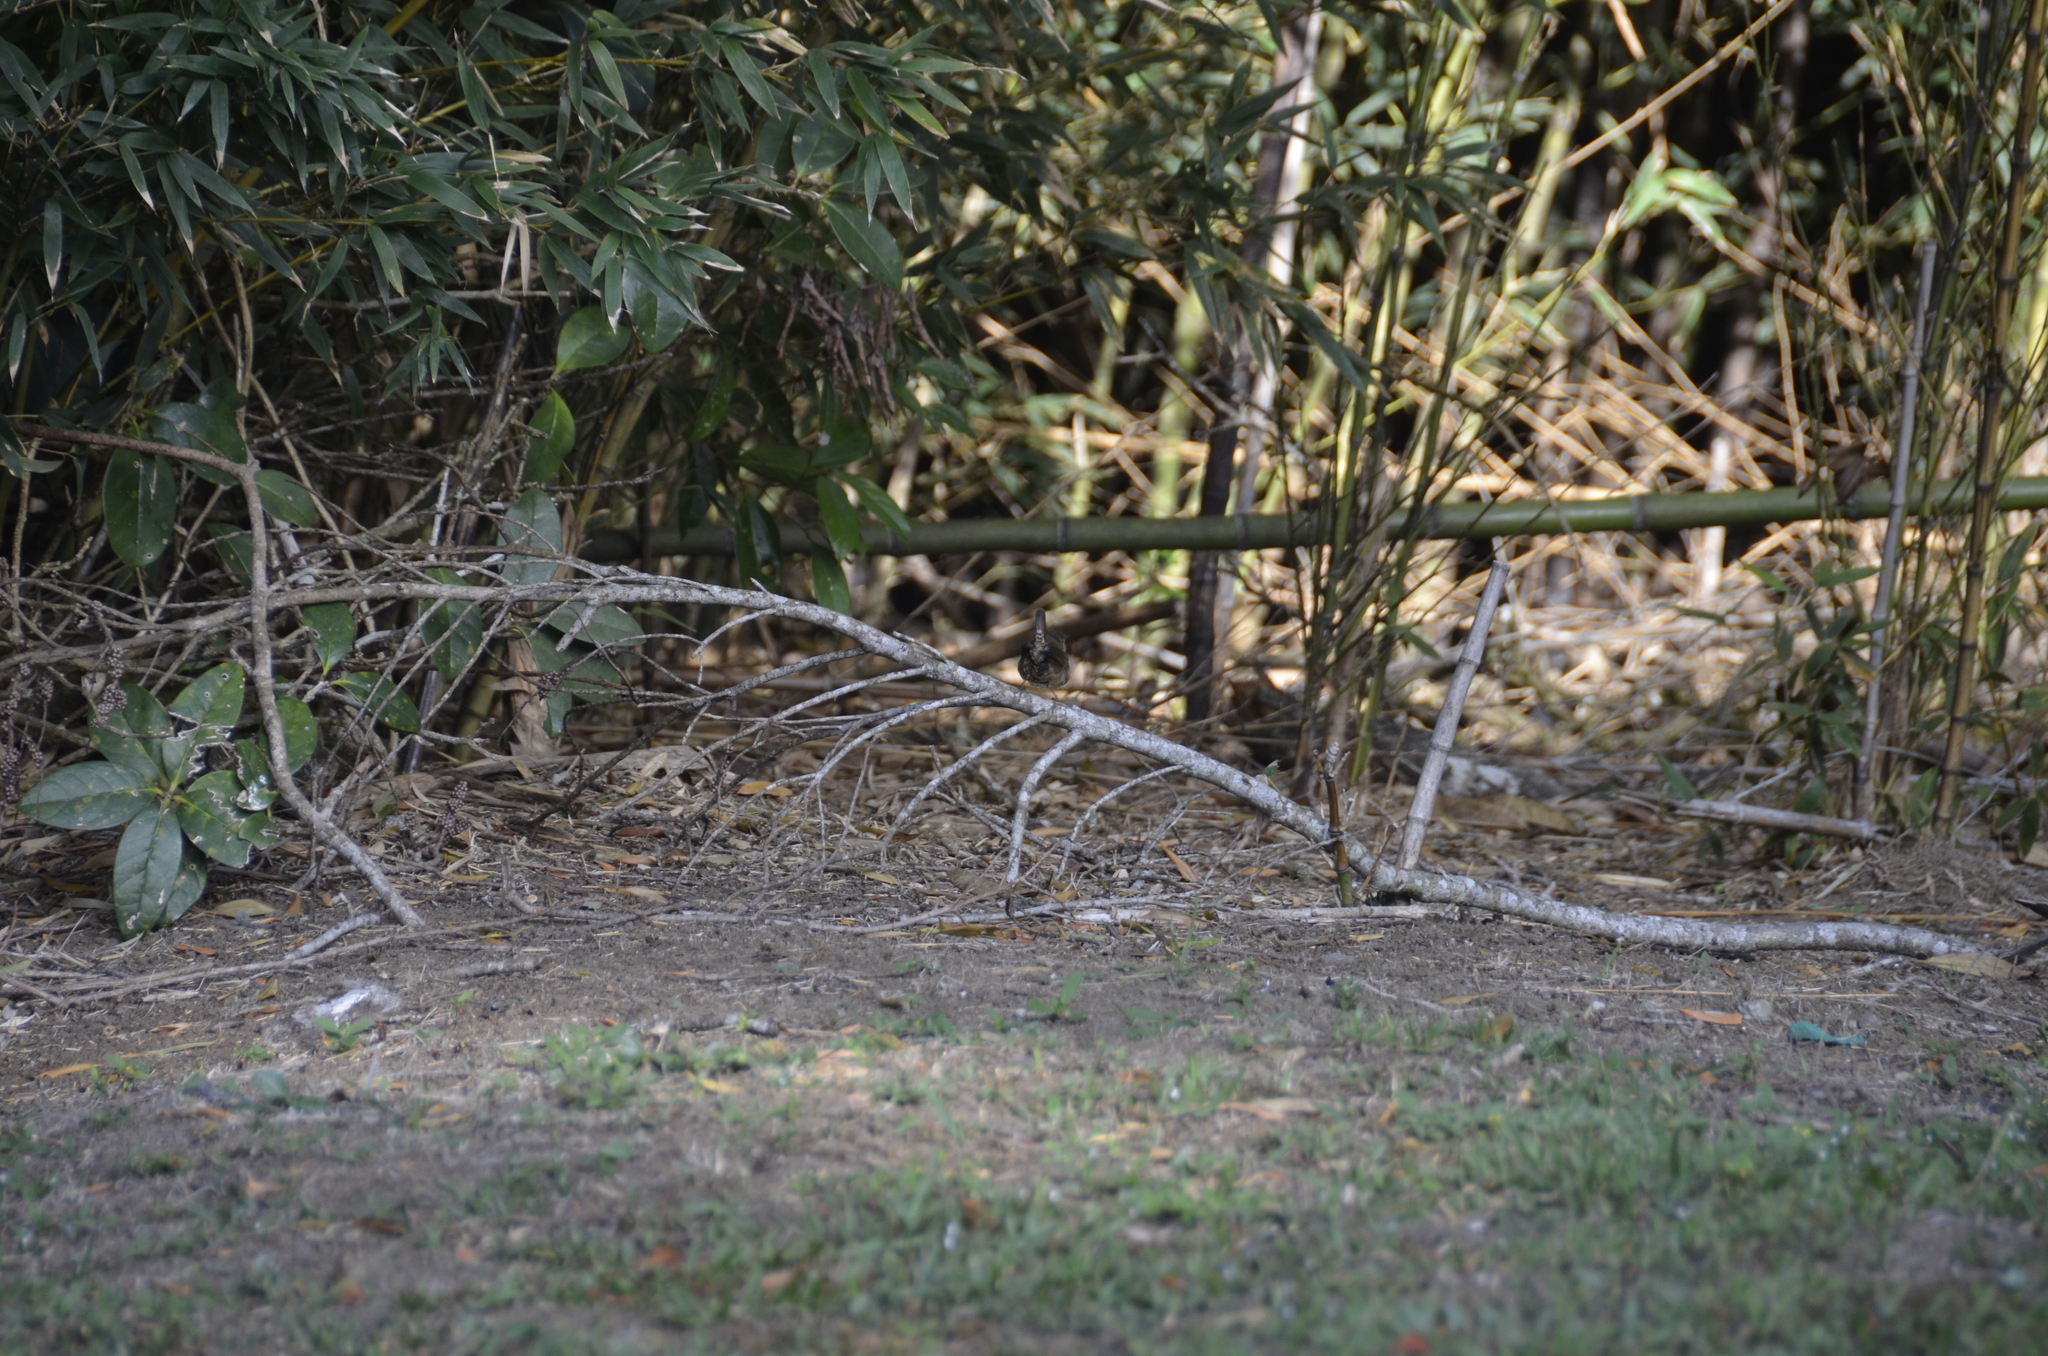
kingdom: Animalia
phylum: Chordata
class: Aves
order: Passeriformes
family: Troglodytidae
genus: Troglodytes
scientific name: Troglodytes aedon
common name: House wren
